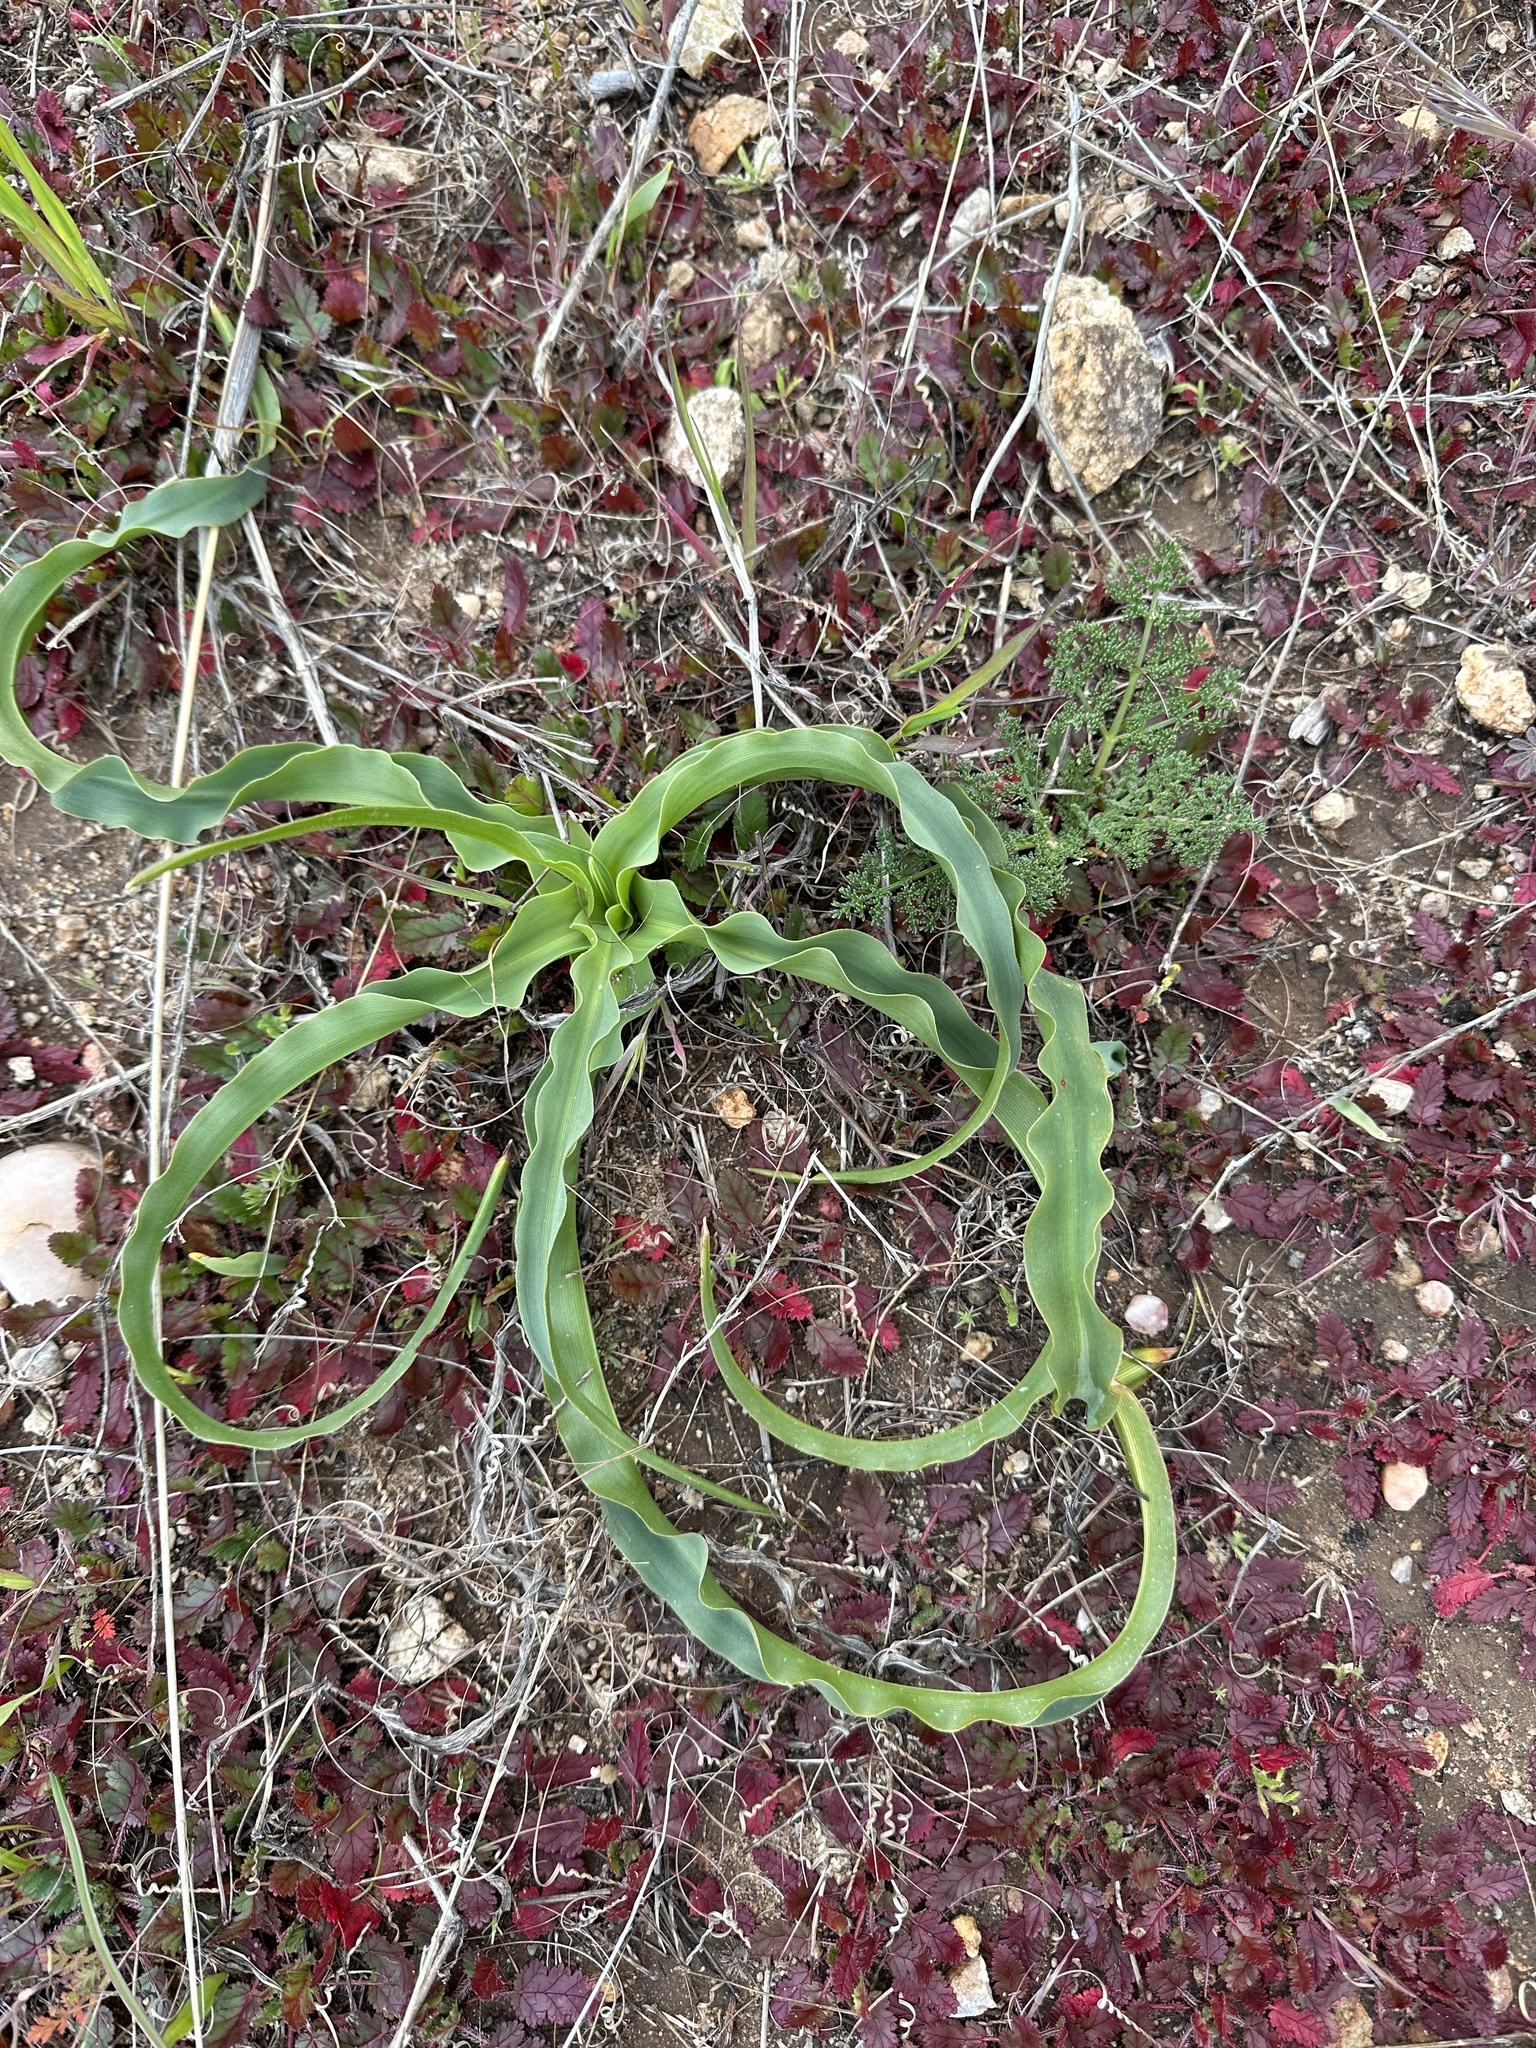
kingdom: Plantae
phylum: Tracheophyta
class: Liliopsida
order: Asparagales
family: Asparagaceae
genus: Chlorogalum
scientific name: Chlorogalum pomeridianum
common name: Amole
